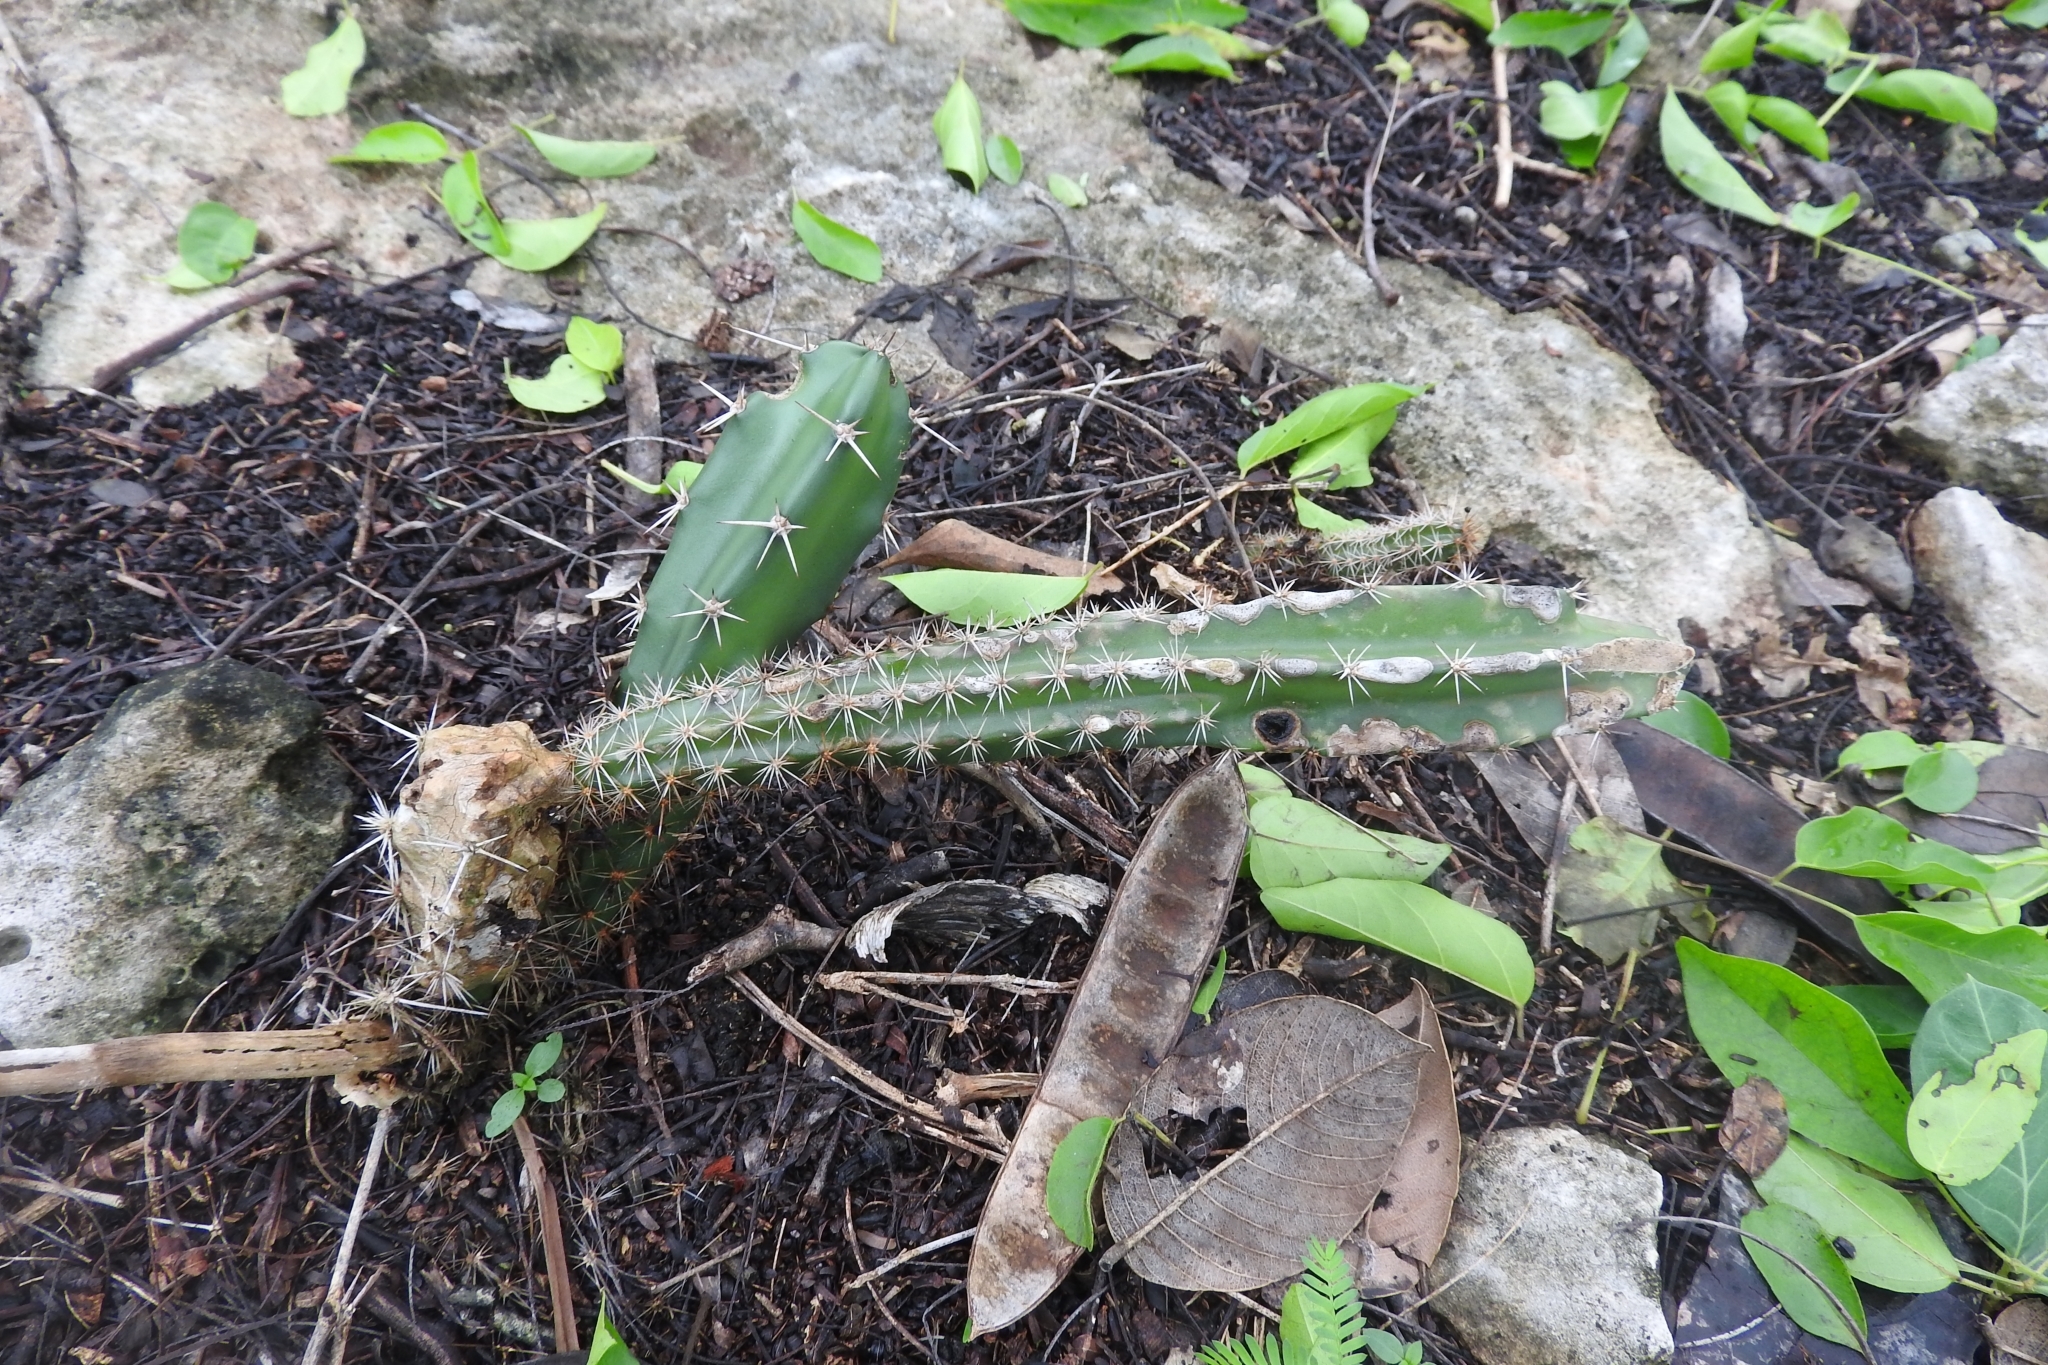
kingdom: Plantae
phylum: Tracheophyta
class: Magnoliopsida
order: Caryophyllales
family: Cactaceae
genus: Acanthocereus
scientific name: Acanthocereus tetragonus
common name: Triangle cactus
